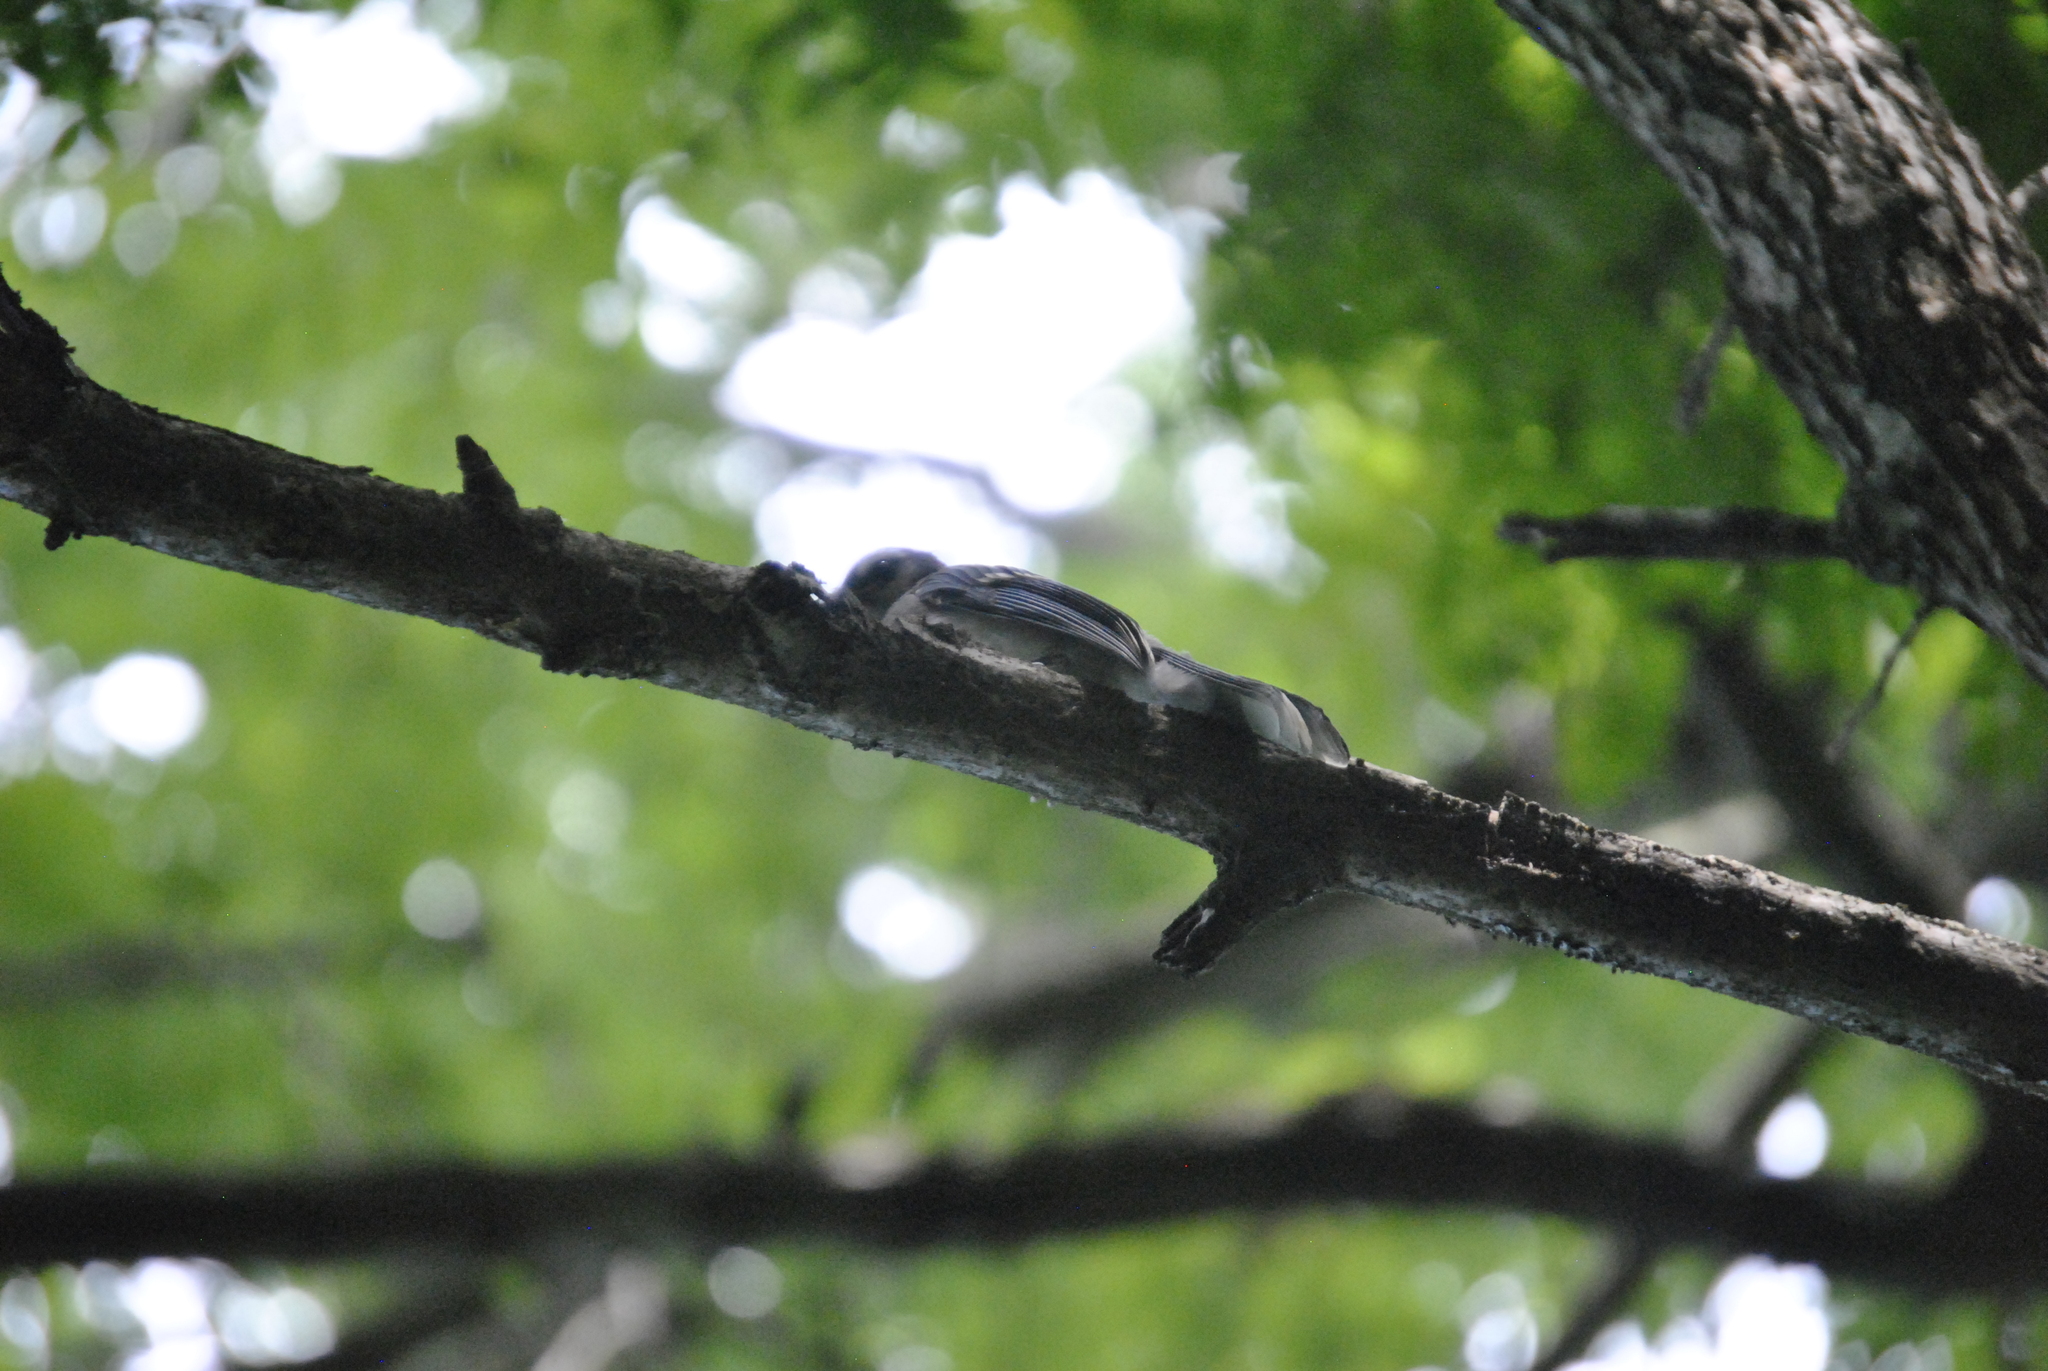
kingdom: Animalia
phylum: Chordata
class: Aves
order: Passeriformes
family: Corvidae
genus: Cyanocitta
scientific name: Cyanocitta cristata
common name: Blue jay
